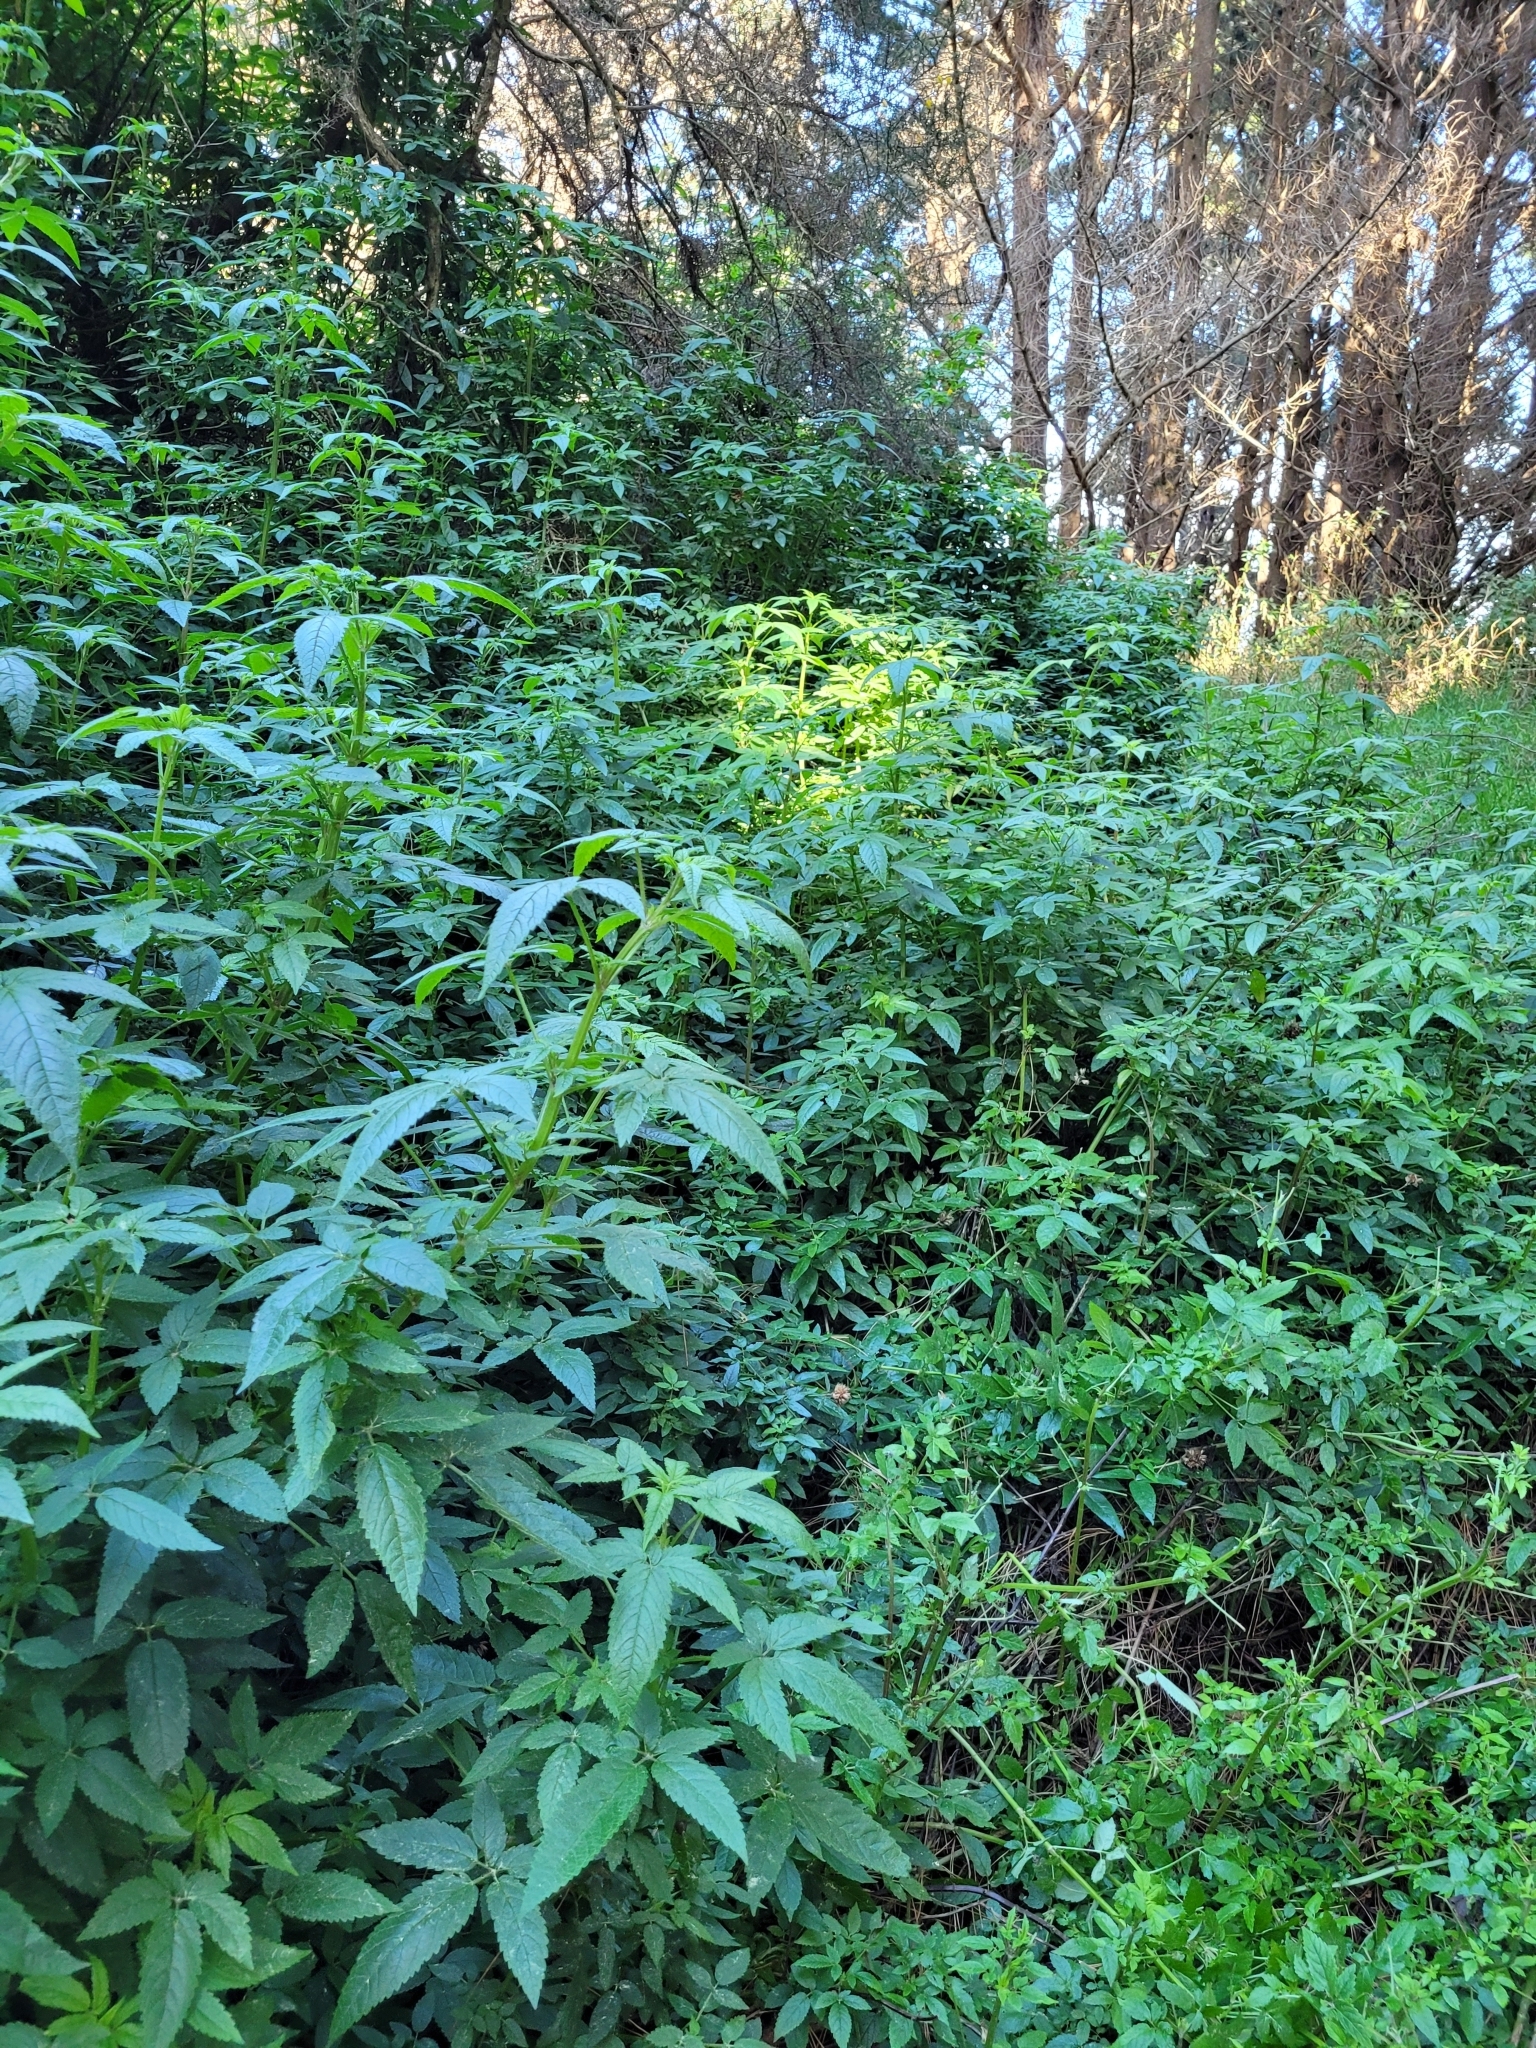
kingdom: Plantae
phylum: Tracheophyta
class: Magnoliopsida
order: Lamiales
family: Lamiaceae
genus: Cedronella
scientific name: Cedronella canariensis
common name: Canary islands balm
